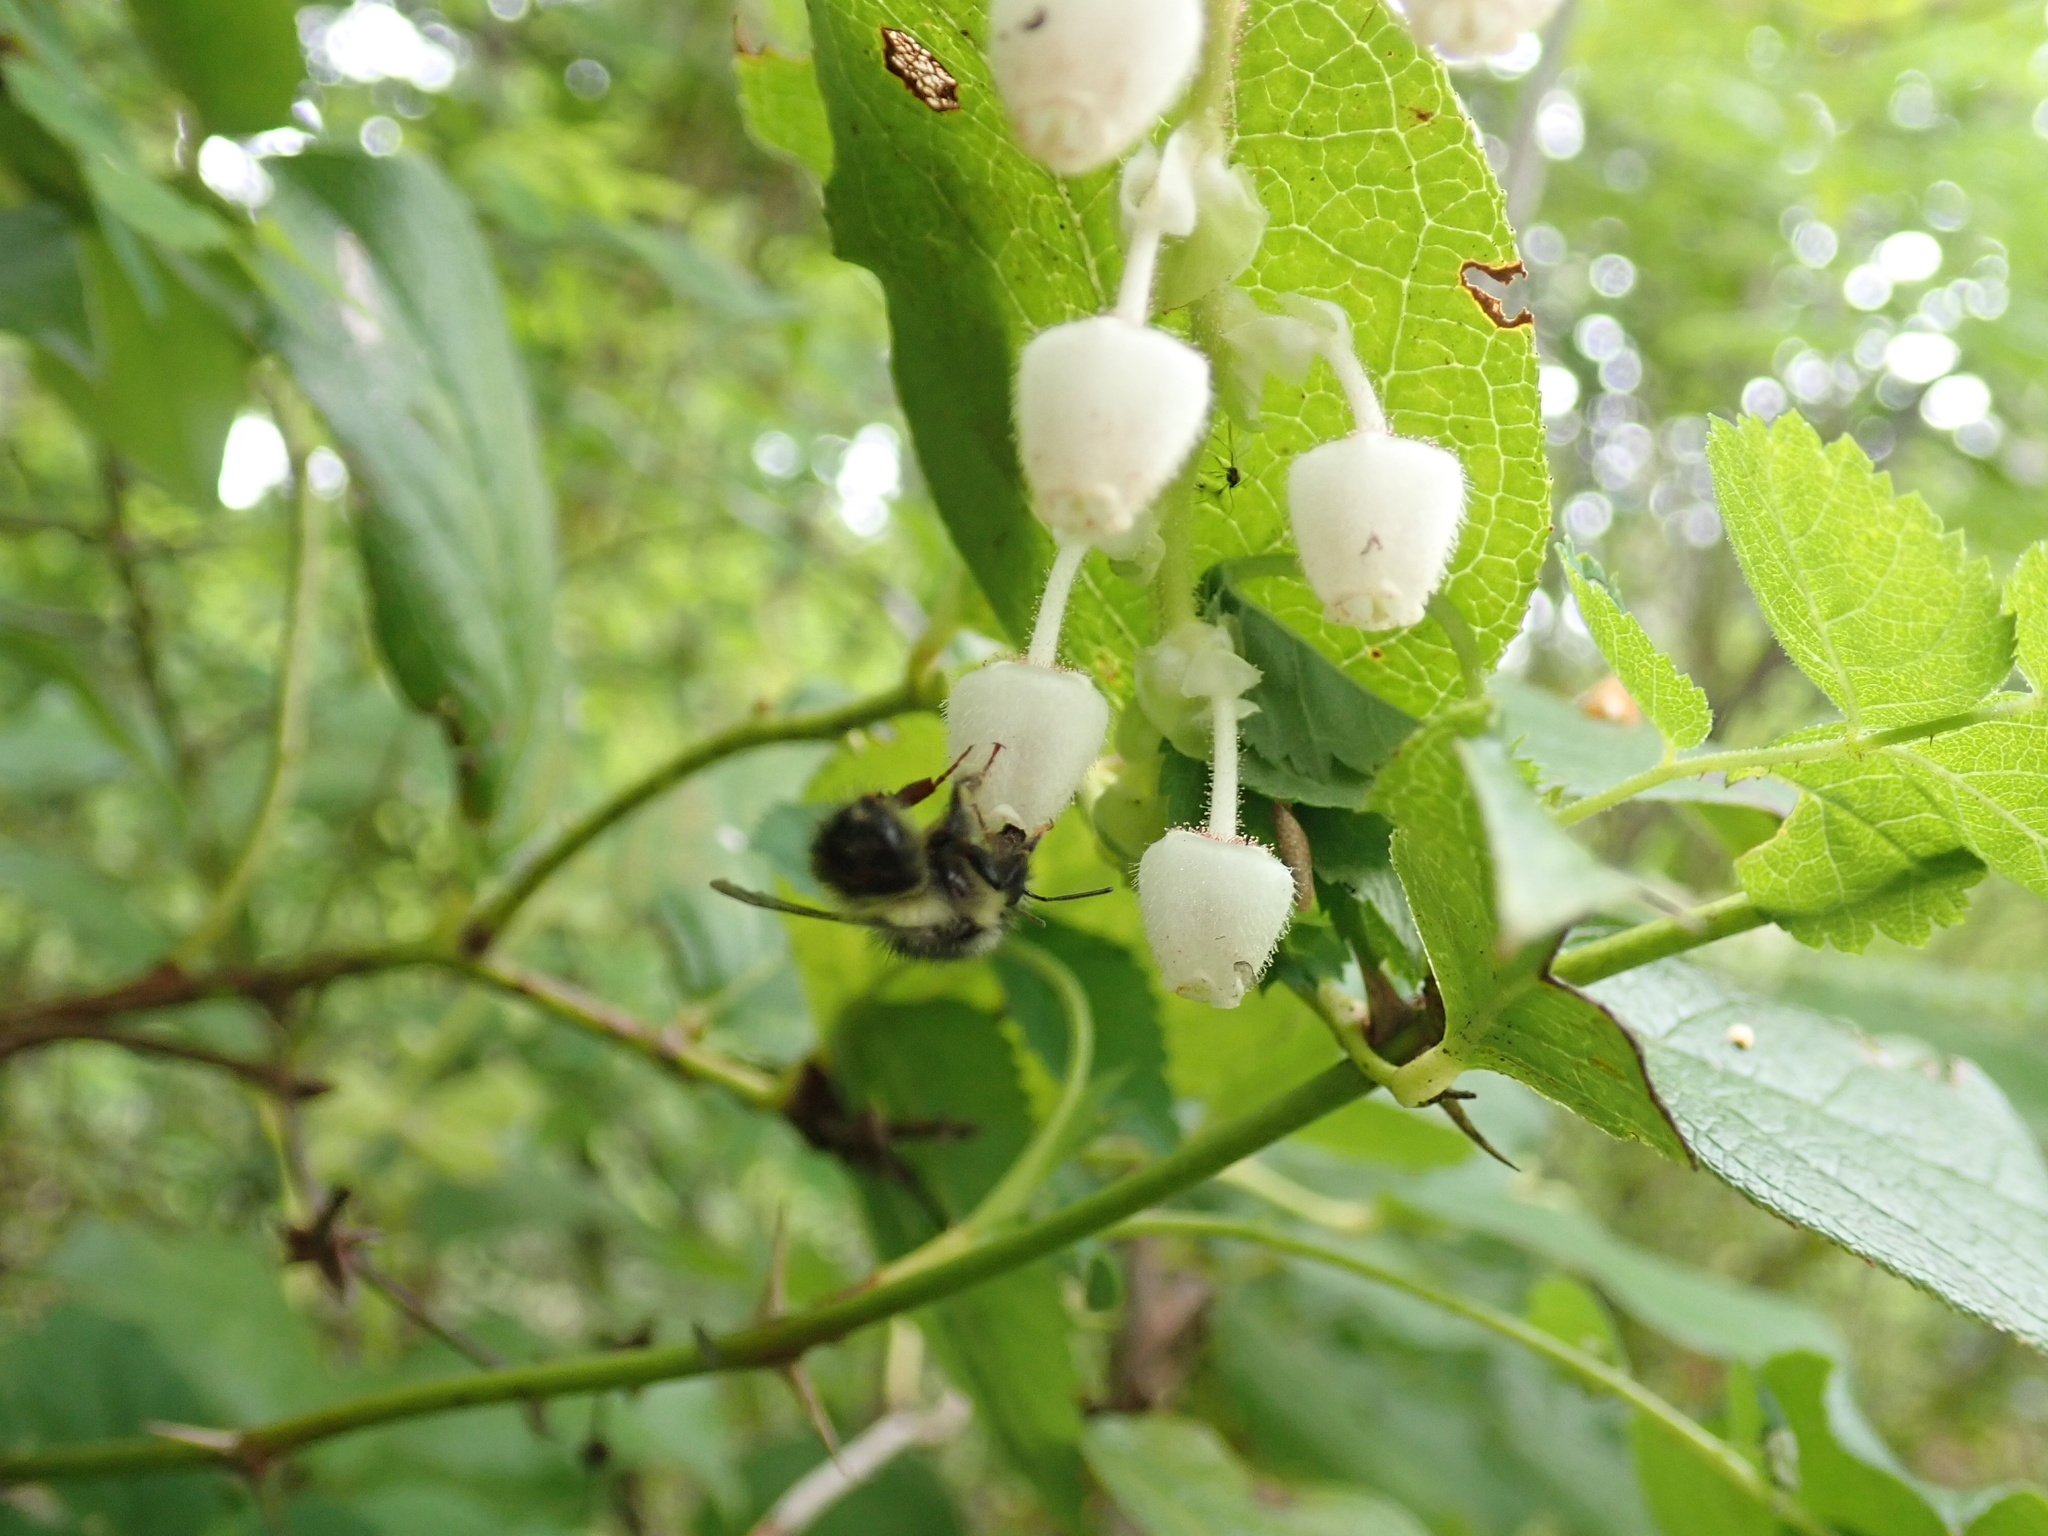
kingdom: Plantae
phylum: Tracheophyta
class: Magnoliopsida
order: Ericales
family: Ericaceae
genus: Gaultheria
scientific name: Gaultheria shallon
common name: Shallon
